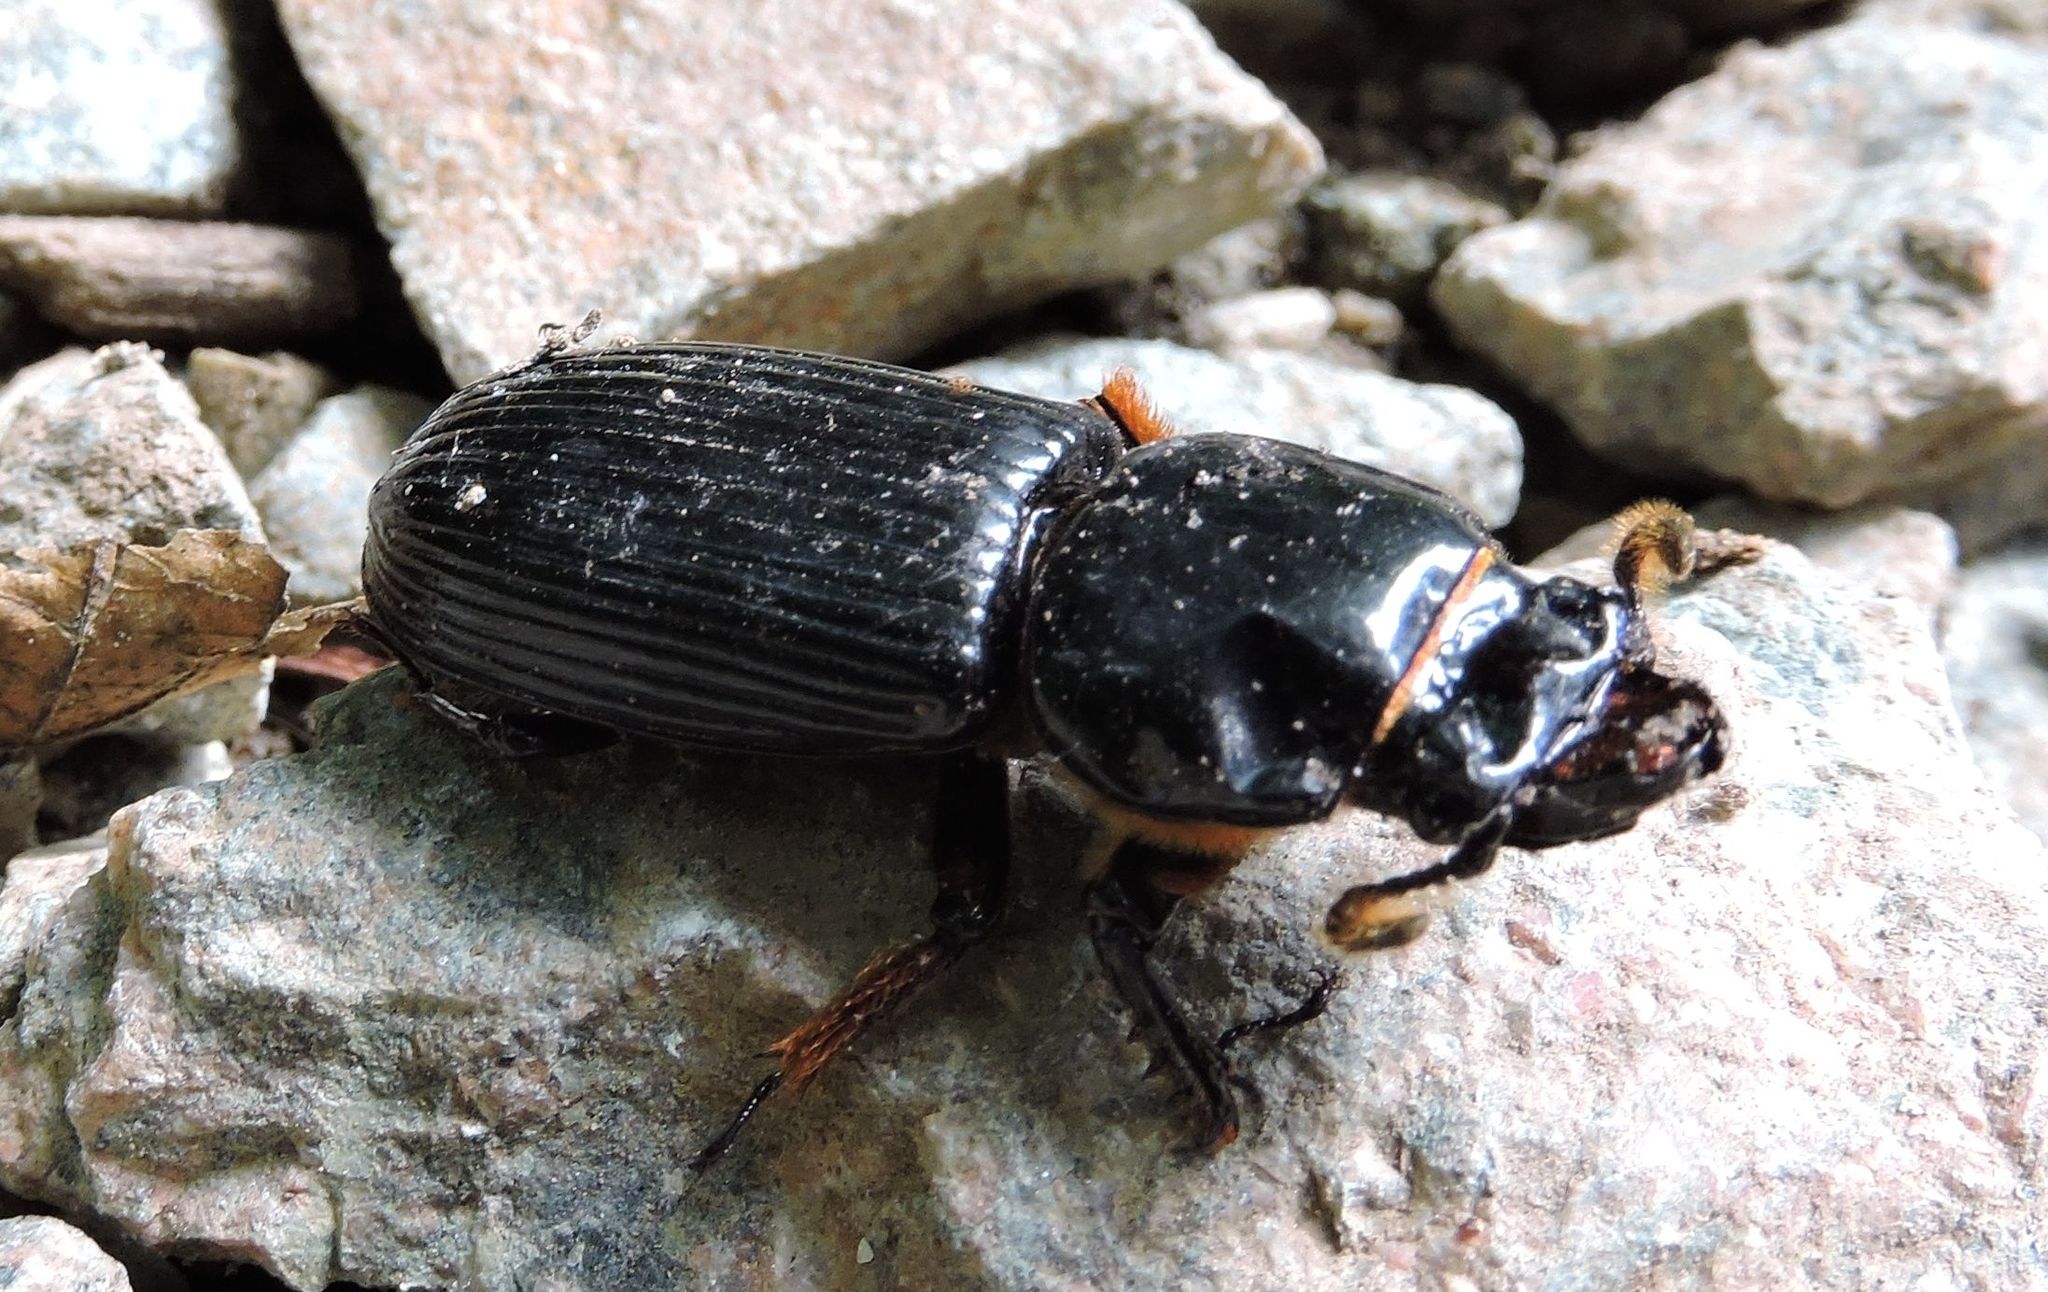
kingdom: Animalia
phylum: Arthropoda
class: Insecta
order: Coleoptera
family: Passalidae
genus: Odontotaenius
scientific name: Odontotaenius disjunctus
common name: Patent leather beetle
